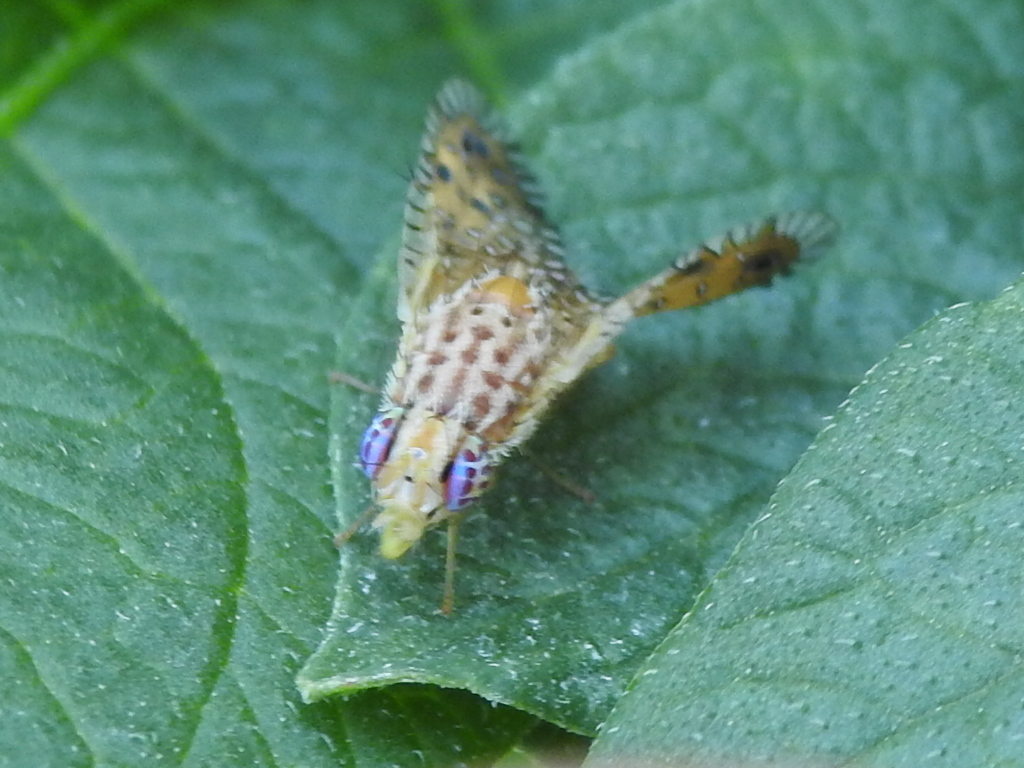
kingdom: Animalia
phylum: Arthropoda
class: Insecta
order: Diptera
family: Tephritidae
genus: Paracantha
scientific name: Paracantha culta
